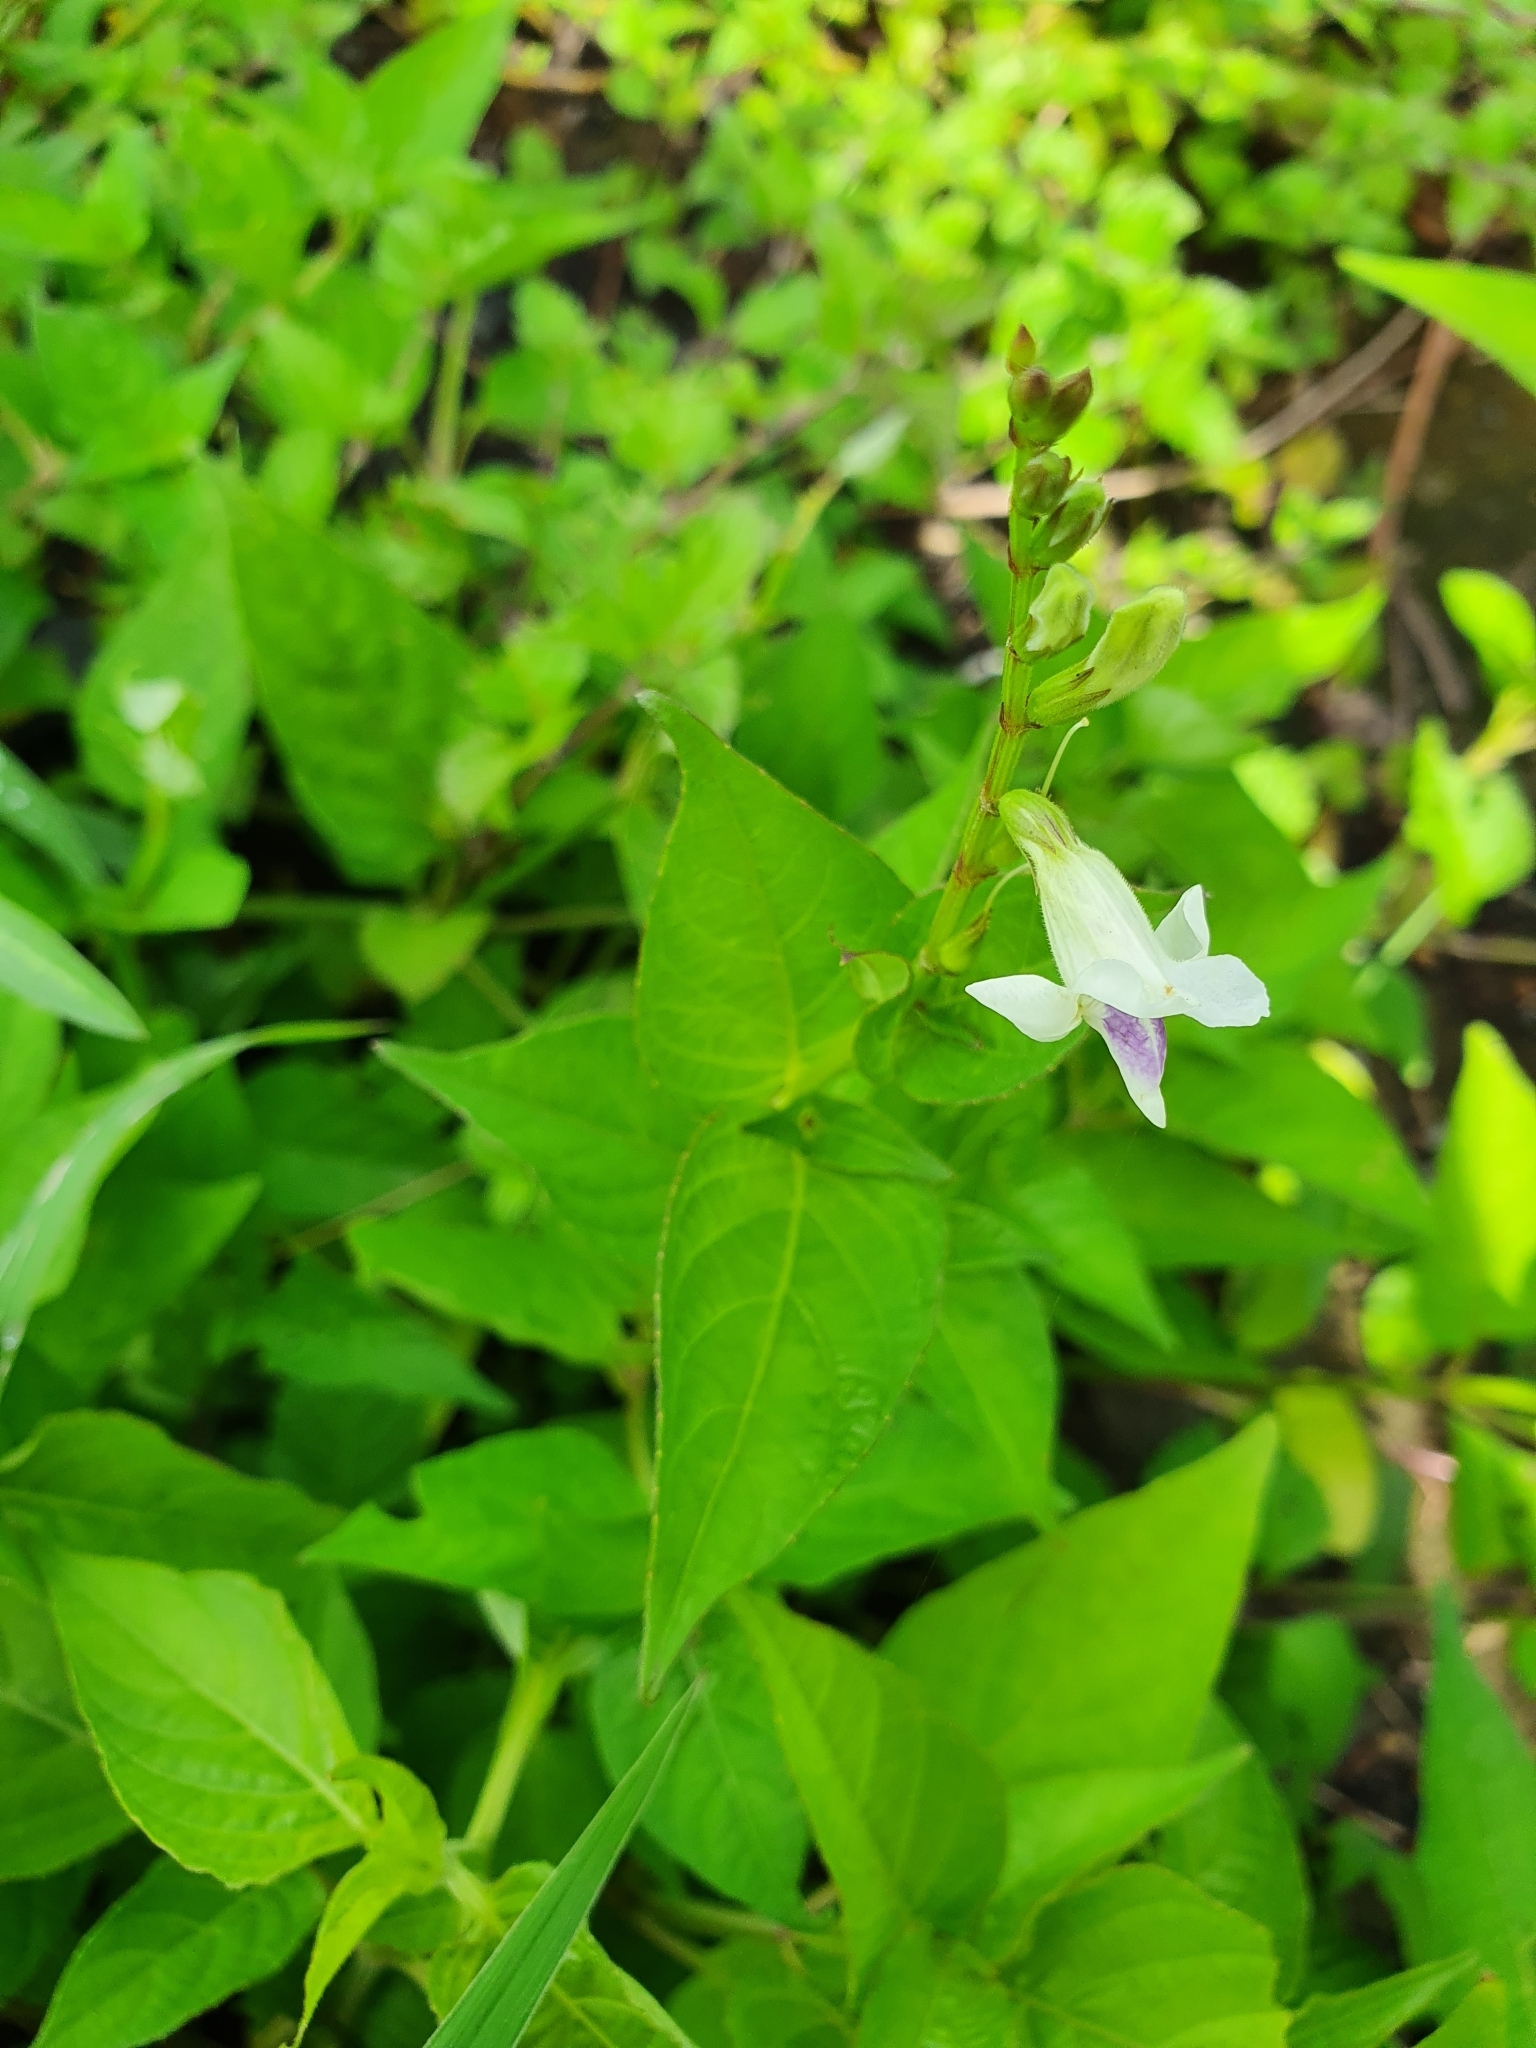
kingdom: Plantae
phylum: Tracheophyta
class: Magnoliopsida
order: Lamiales
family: Acanthaceae
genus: Asystasia
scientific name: Asystasia intrusa
